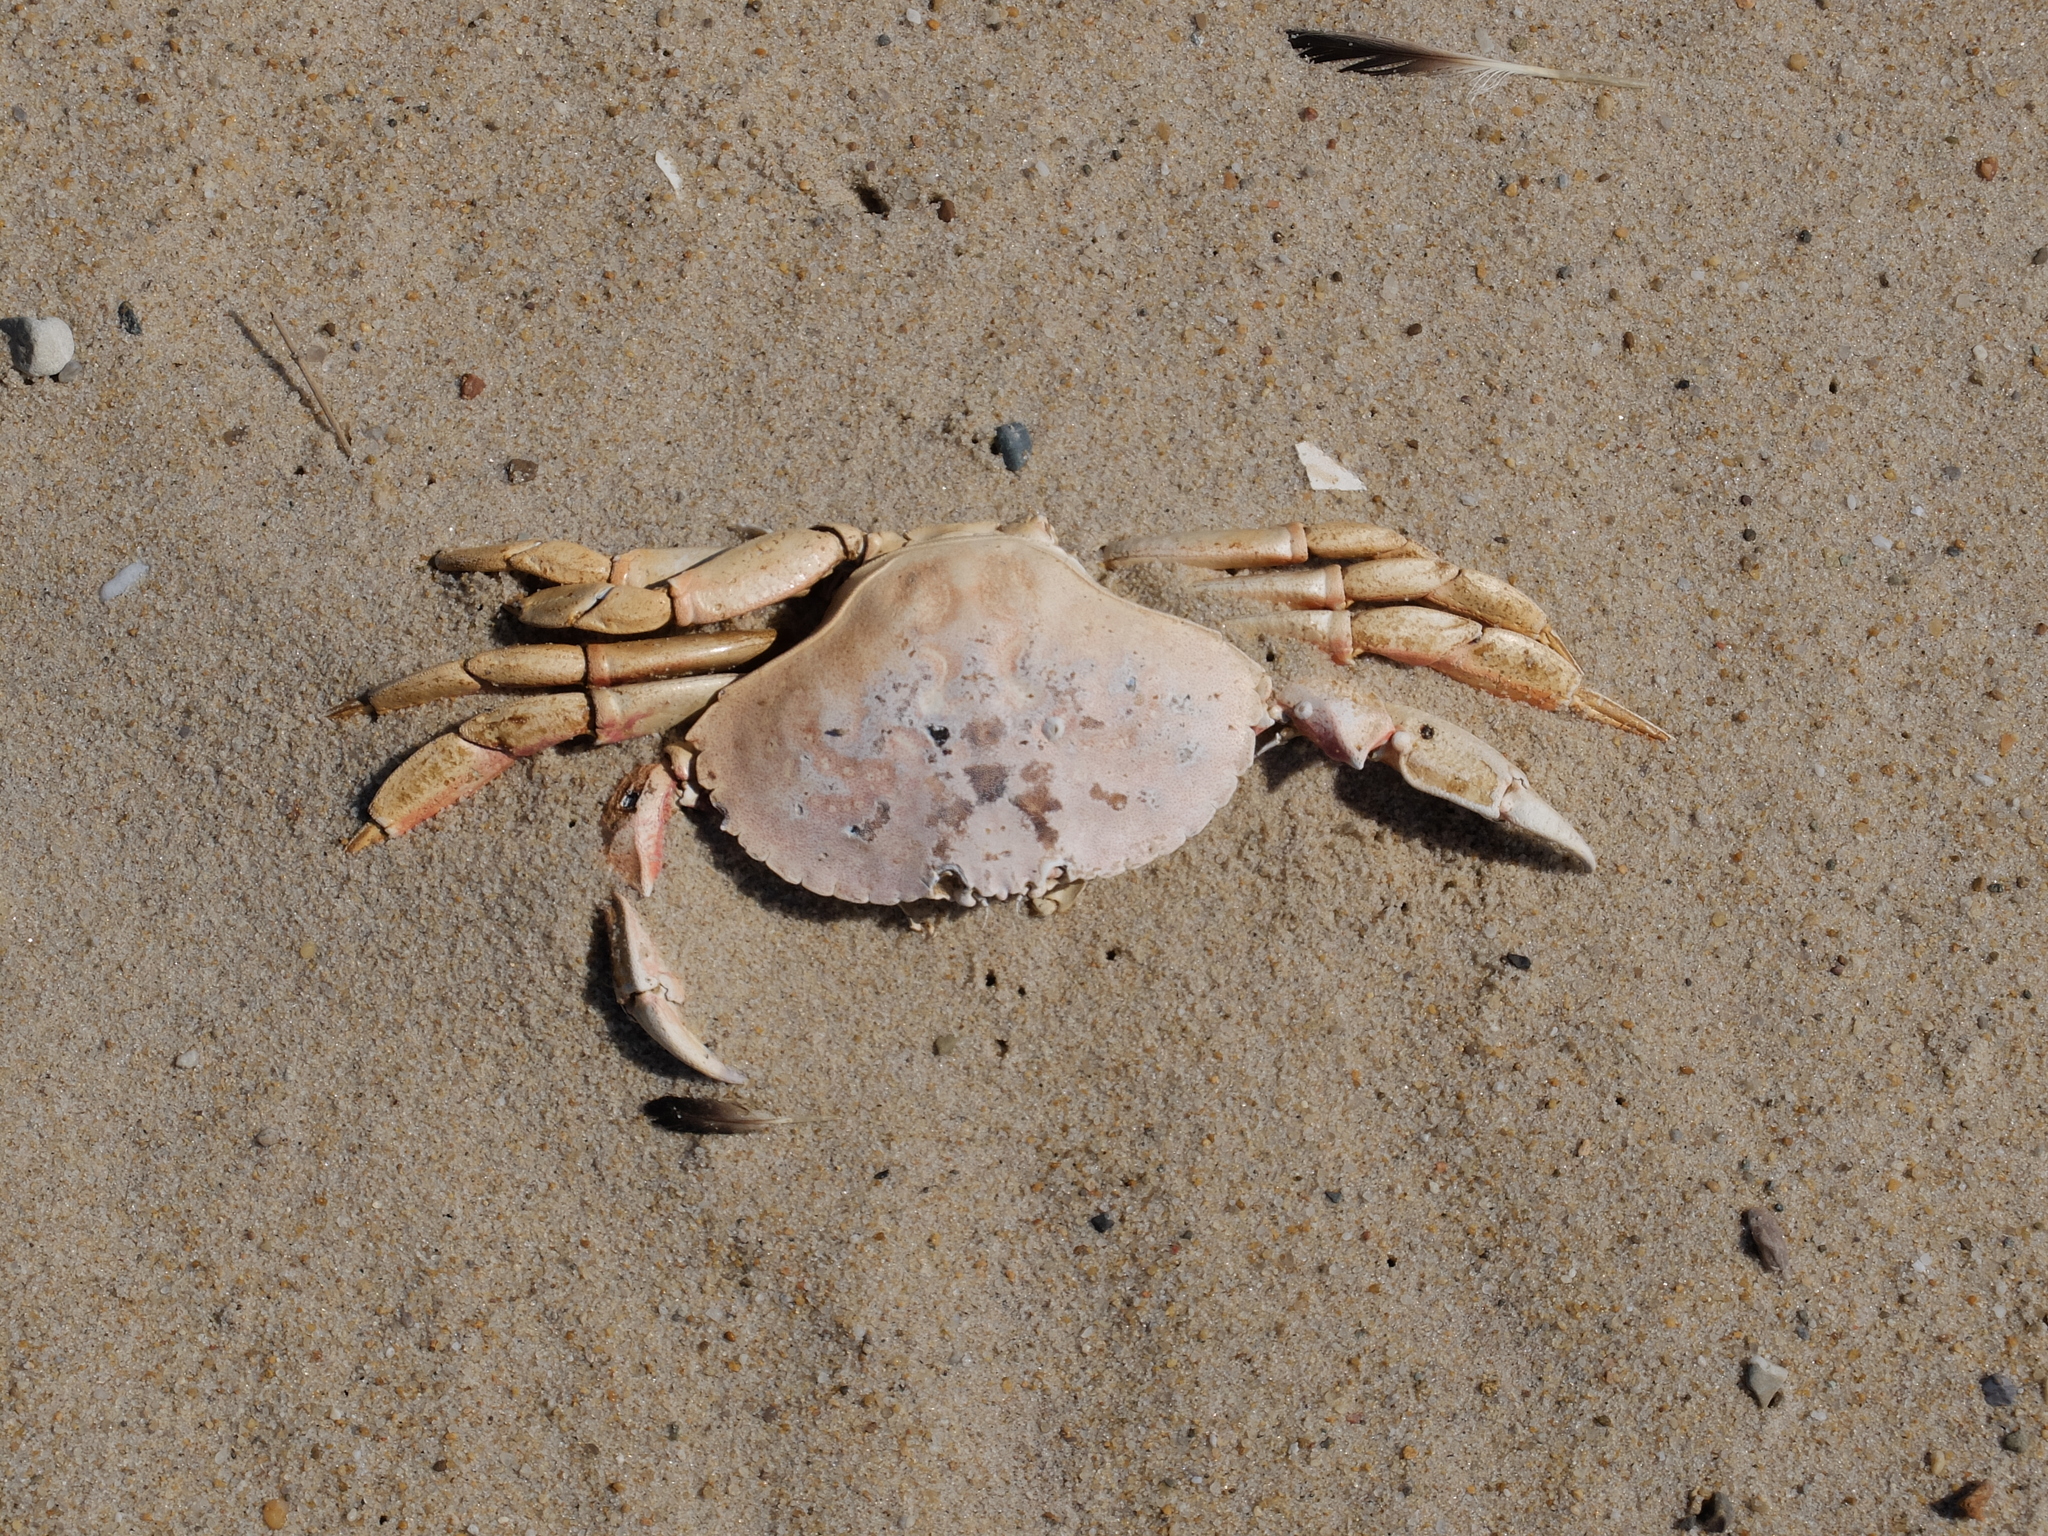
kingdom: Animalia
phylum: Arthropoda
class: Malacostraca
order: Decapoda
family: Cancridae
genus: Cancer
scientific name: Cancer irroratus
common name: Atlantic rock crab
